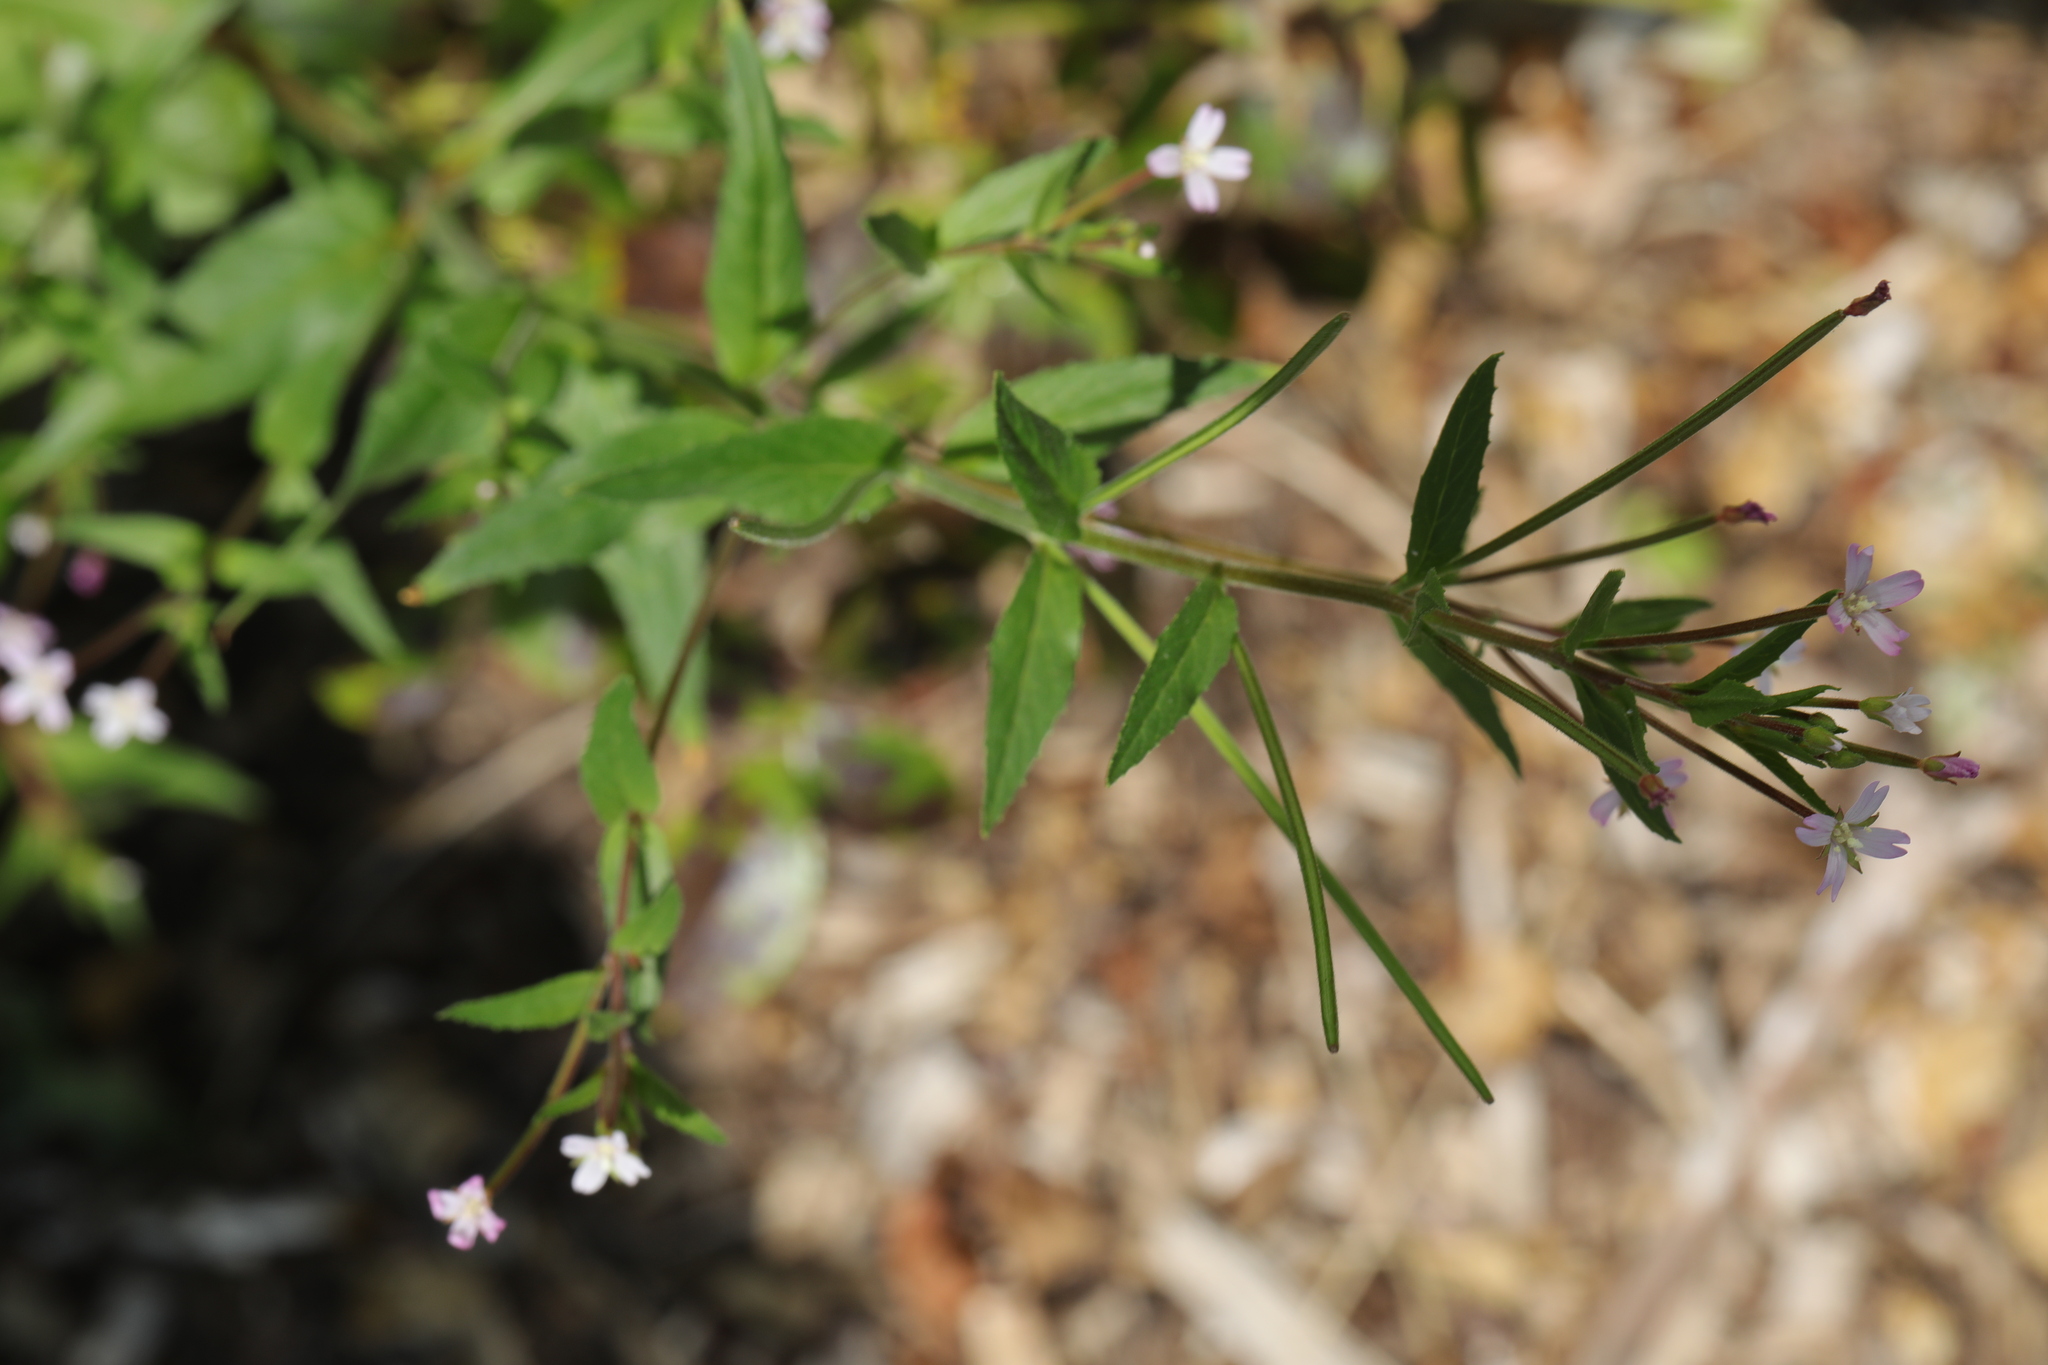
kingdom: Plantae
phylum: Tracheophyta
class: Magnoliopsida
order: Myrtales
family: Onagraceae
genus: Epilobium
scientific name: Epilobium ciliatum
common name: American willowherb
